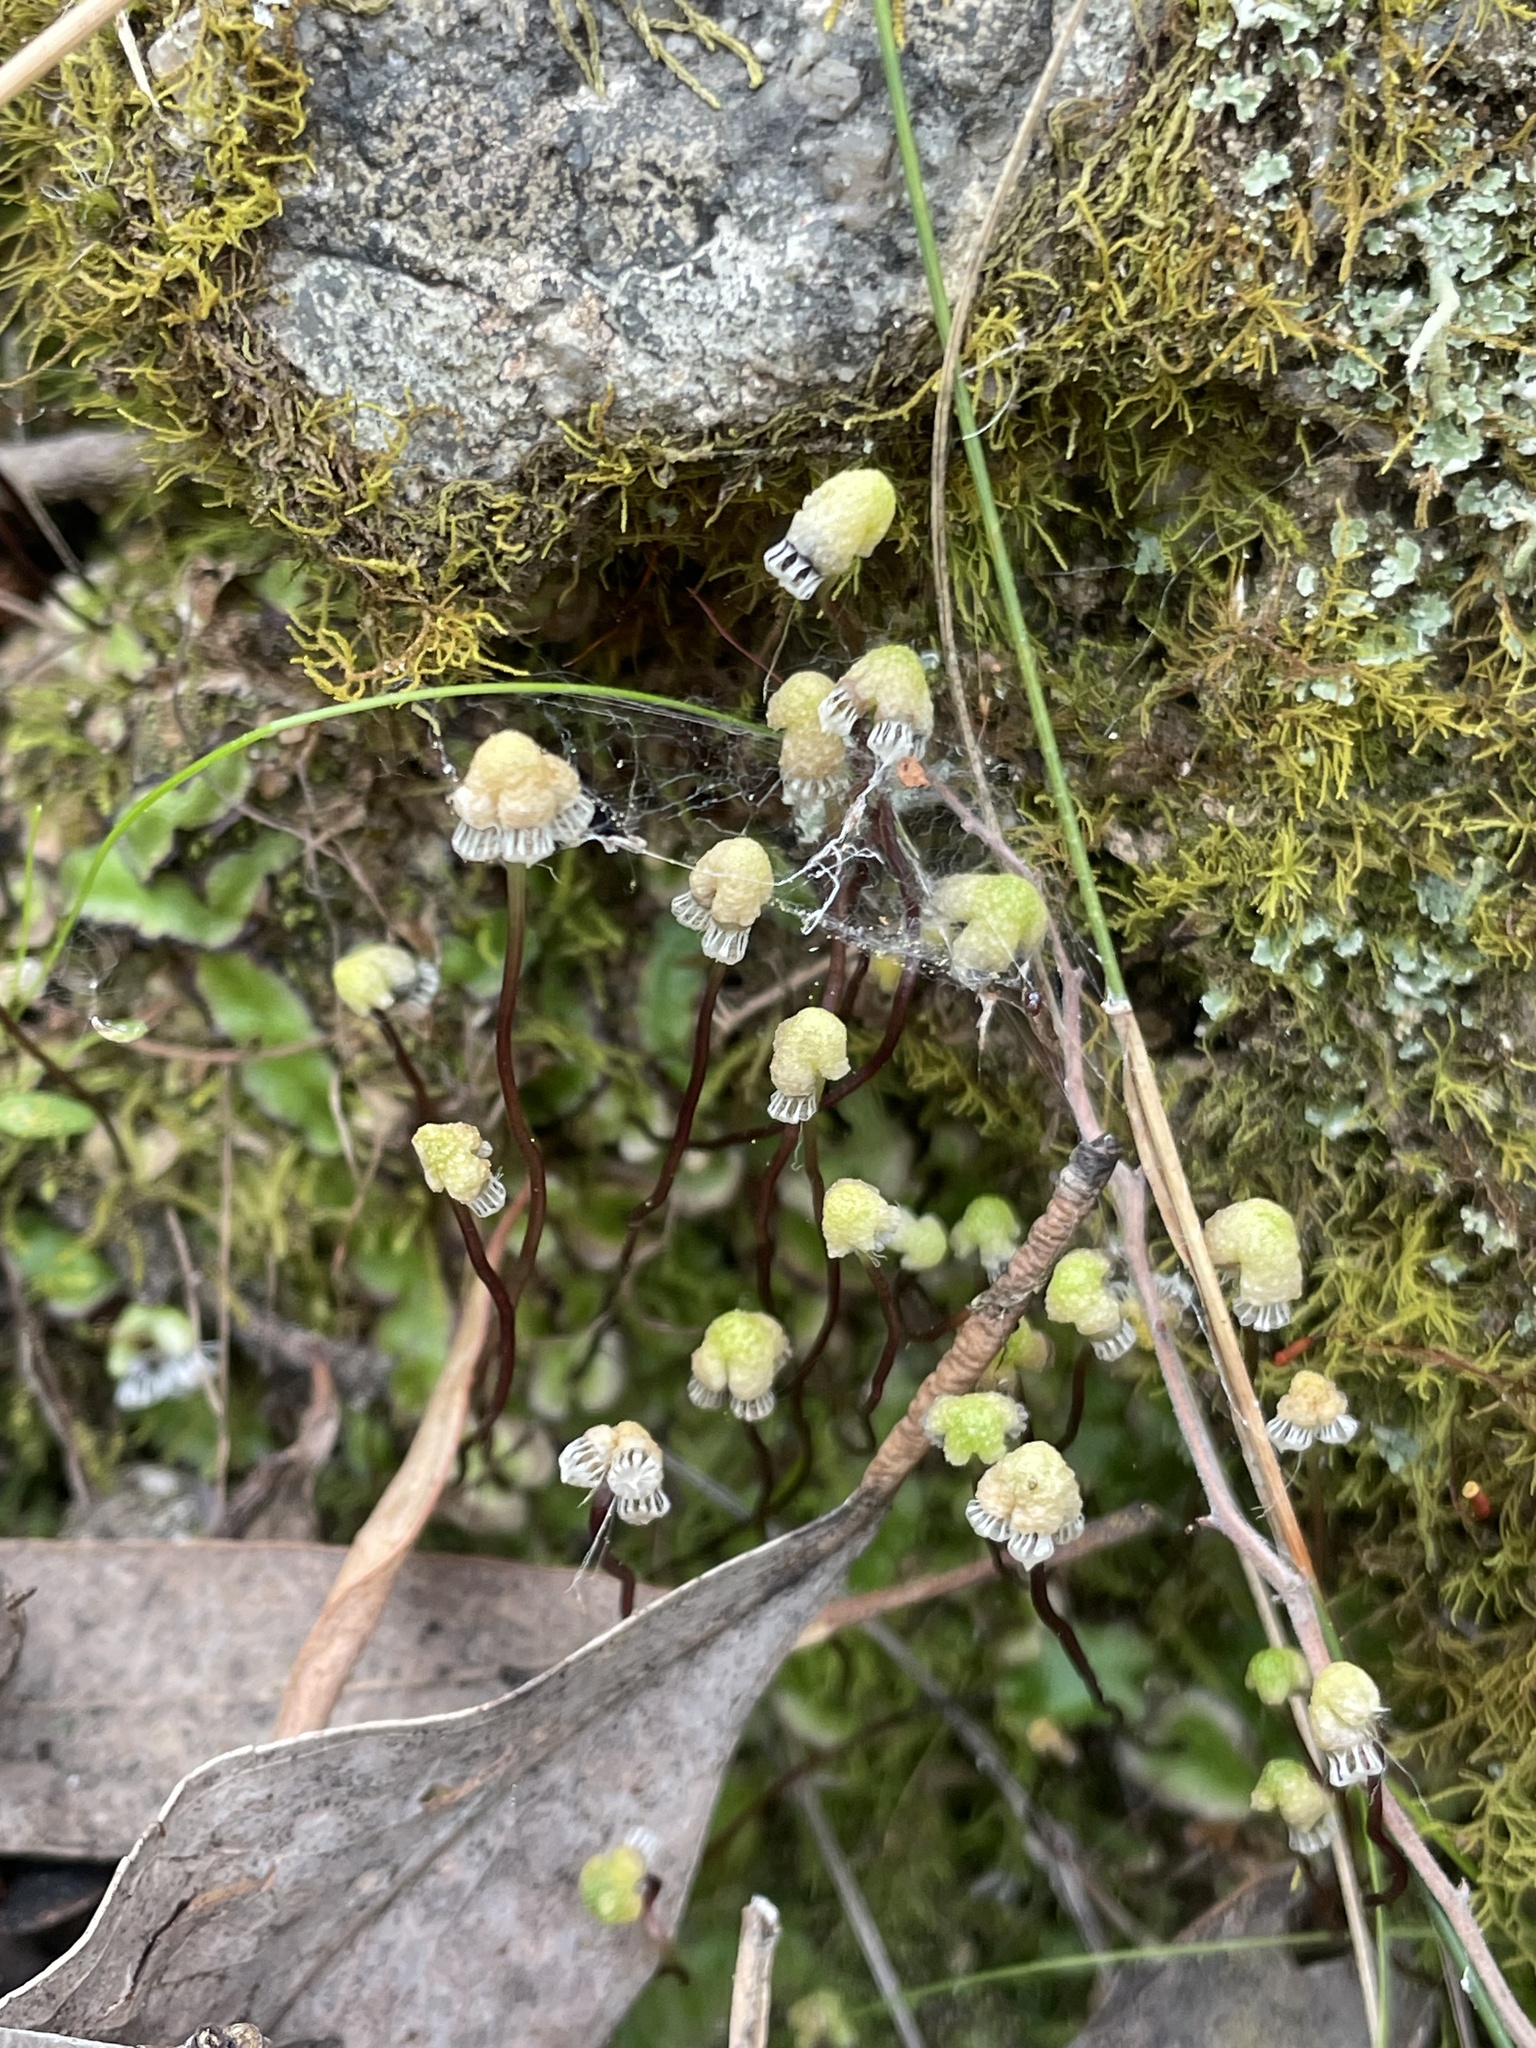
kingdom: Plantae
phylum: Marchantiophyta
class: Marchantiopsida
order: Marchantiales
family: Aytoniaceae
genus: Asterella
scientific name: Asterella drummondii
